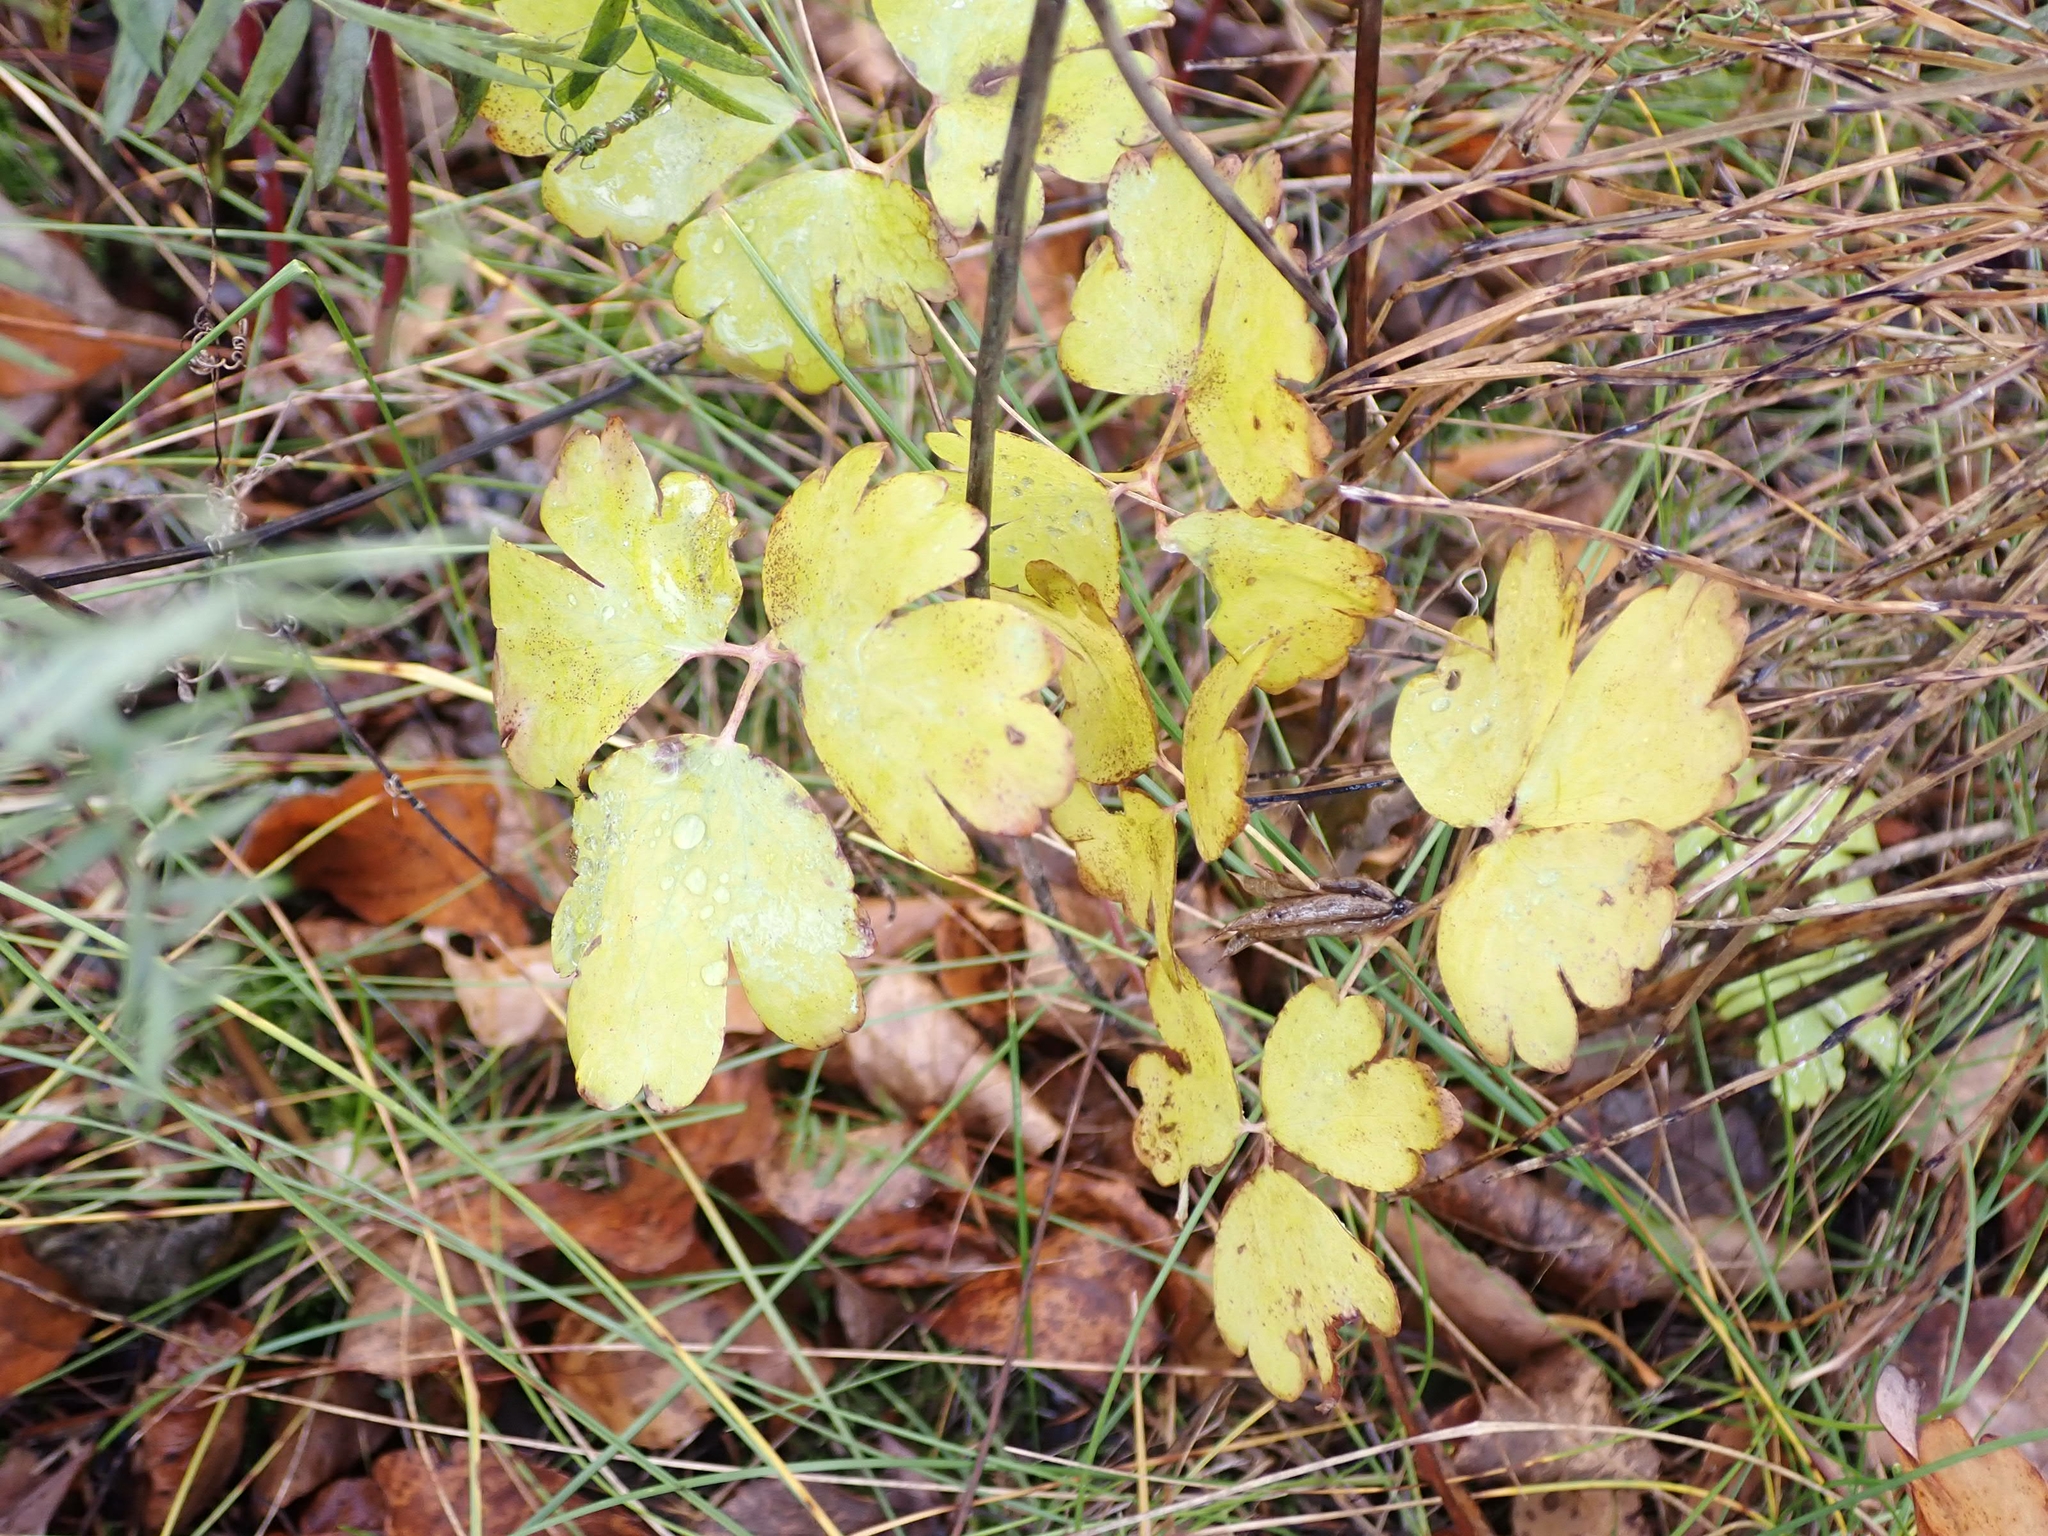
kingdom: Plantae
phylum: Tracheophyta
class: Magnoliopsida
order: Ranunculales
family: Ranunculaceae
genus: Aquilegia
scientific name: Aquilegia canadensis
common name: American columbine
